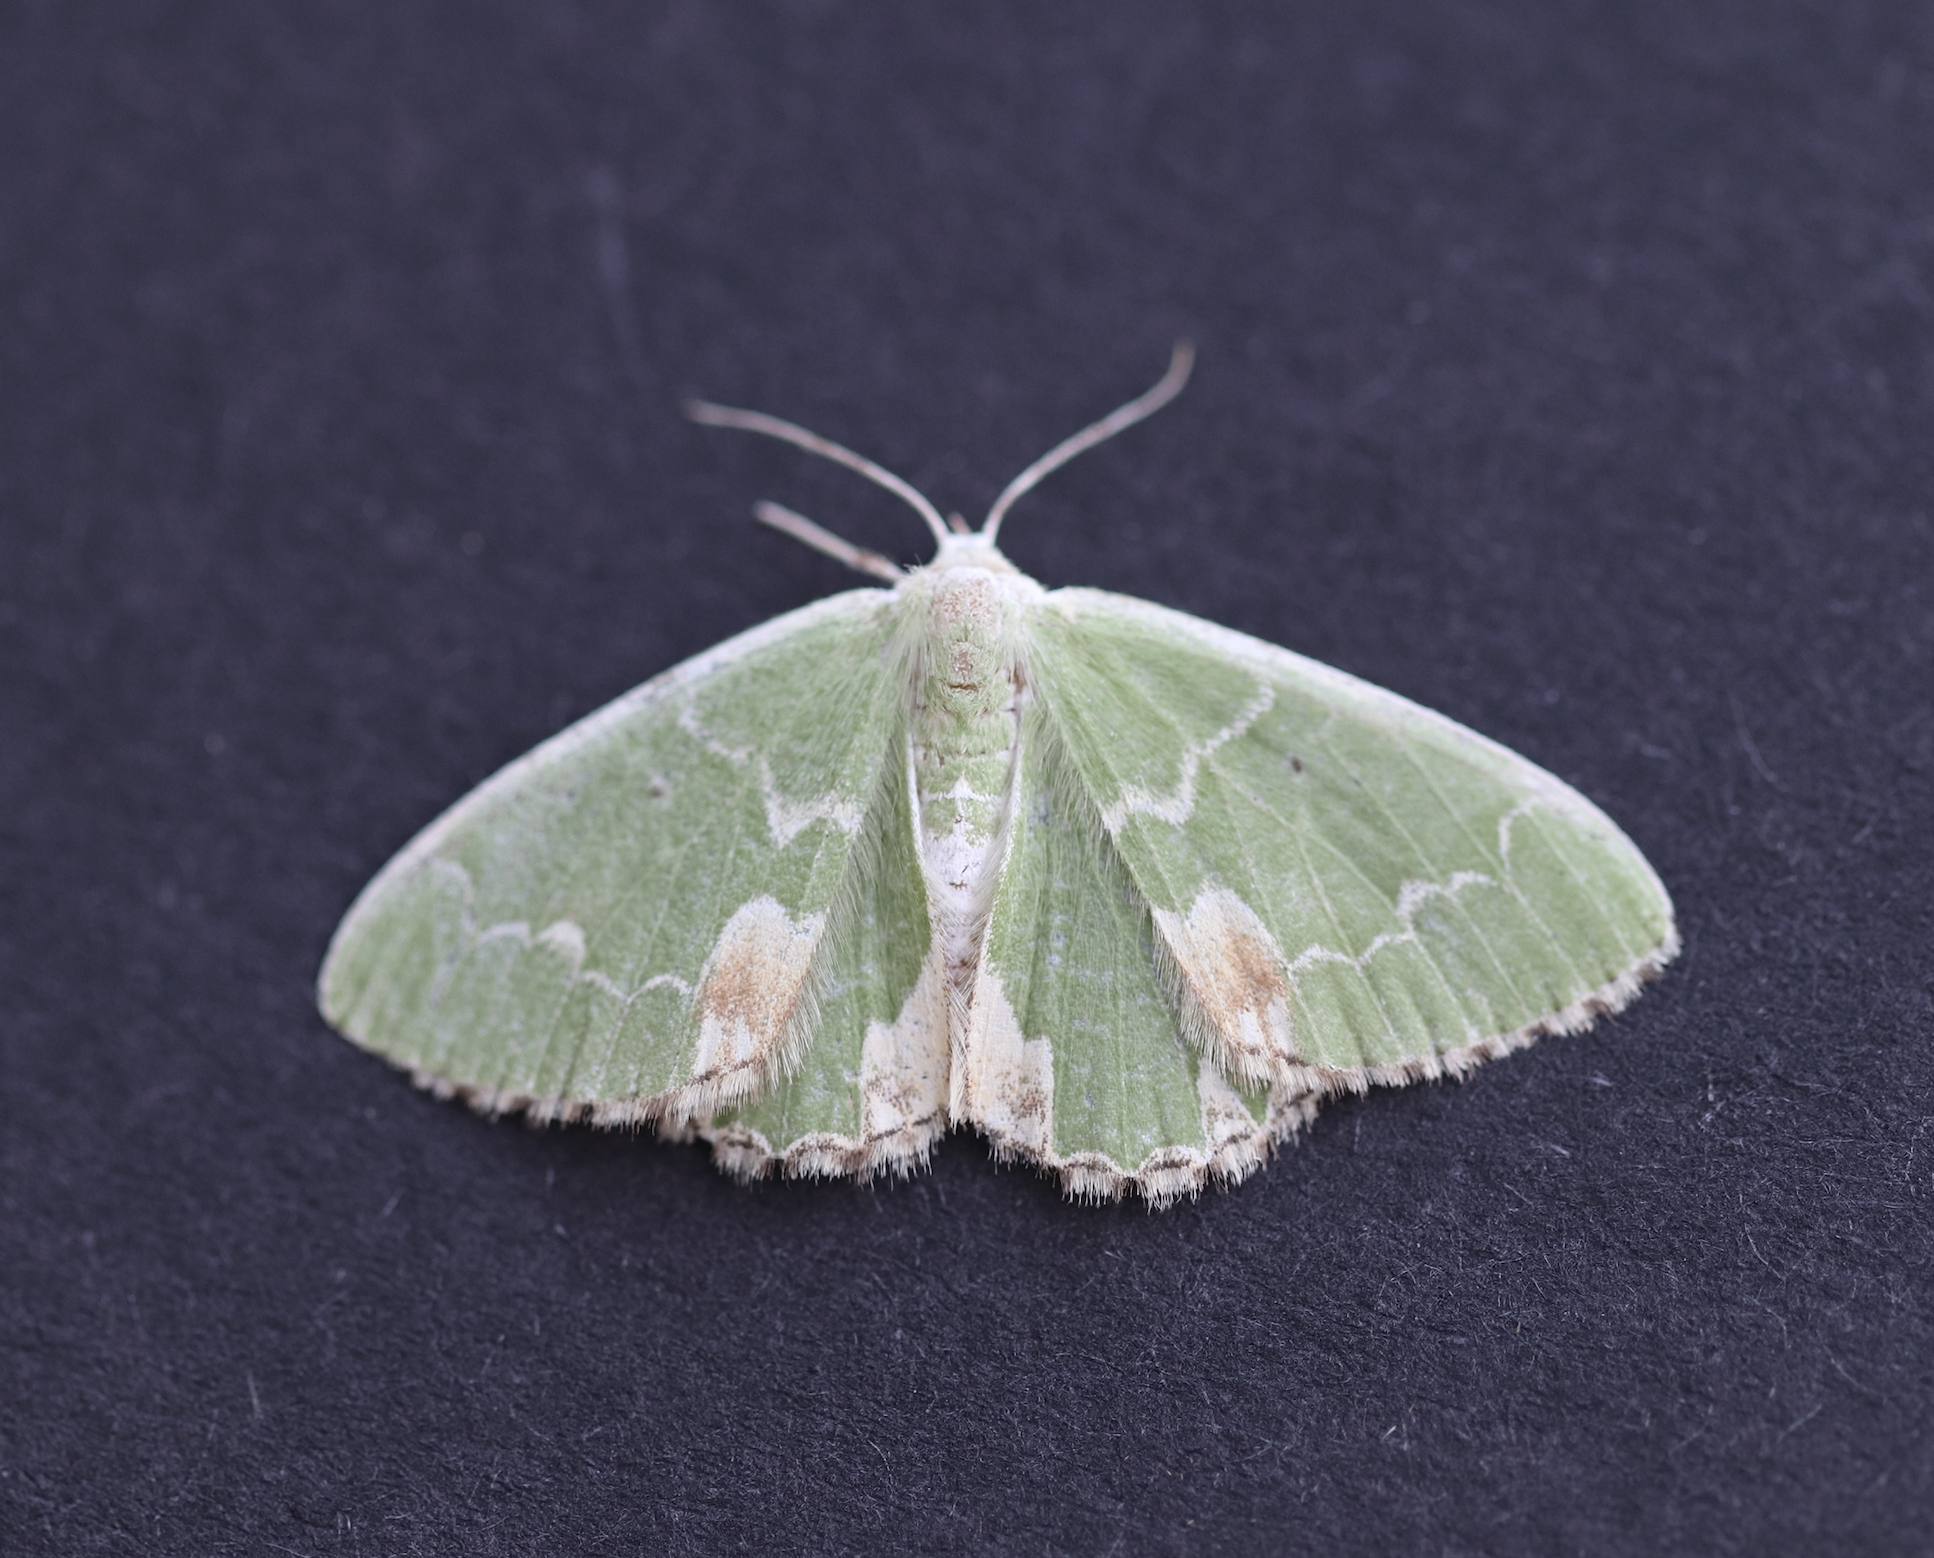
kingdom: Animalia
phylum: Arthropoda
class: Insecta
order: Lepidoptera
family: Geometridae
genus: Comibaena
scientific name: Comibaena bajularia
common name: Blotched emerald
